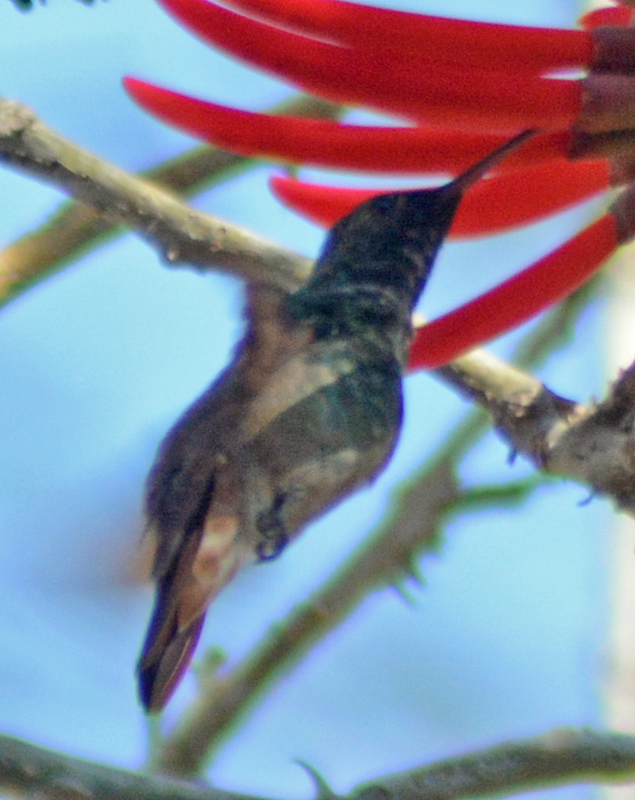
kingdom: Animalia
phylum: Chordata
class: Aves
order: Apodiformes
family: Trochilidae
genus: Saucerottia
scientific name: Saucerottia beryllina
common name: Berylline hummingbird
